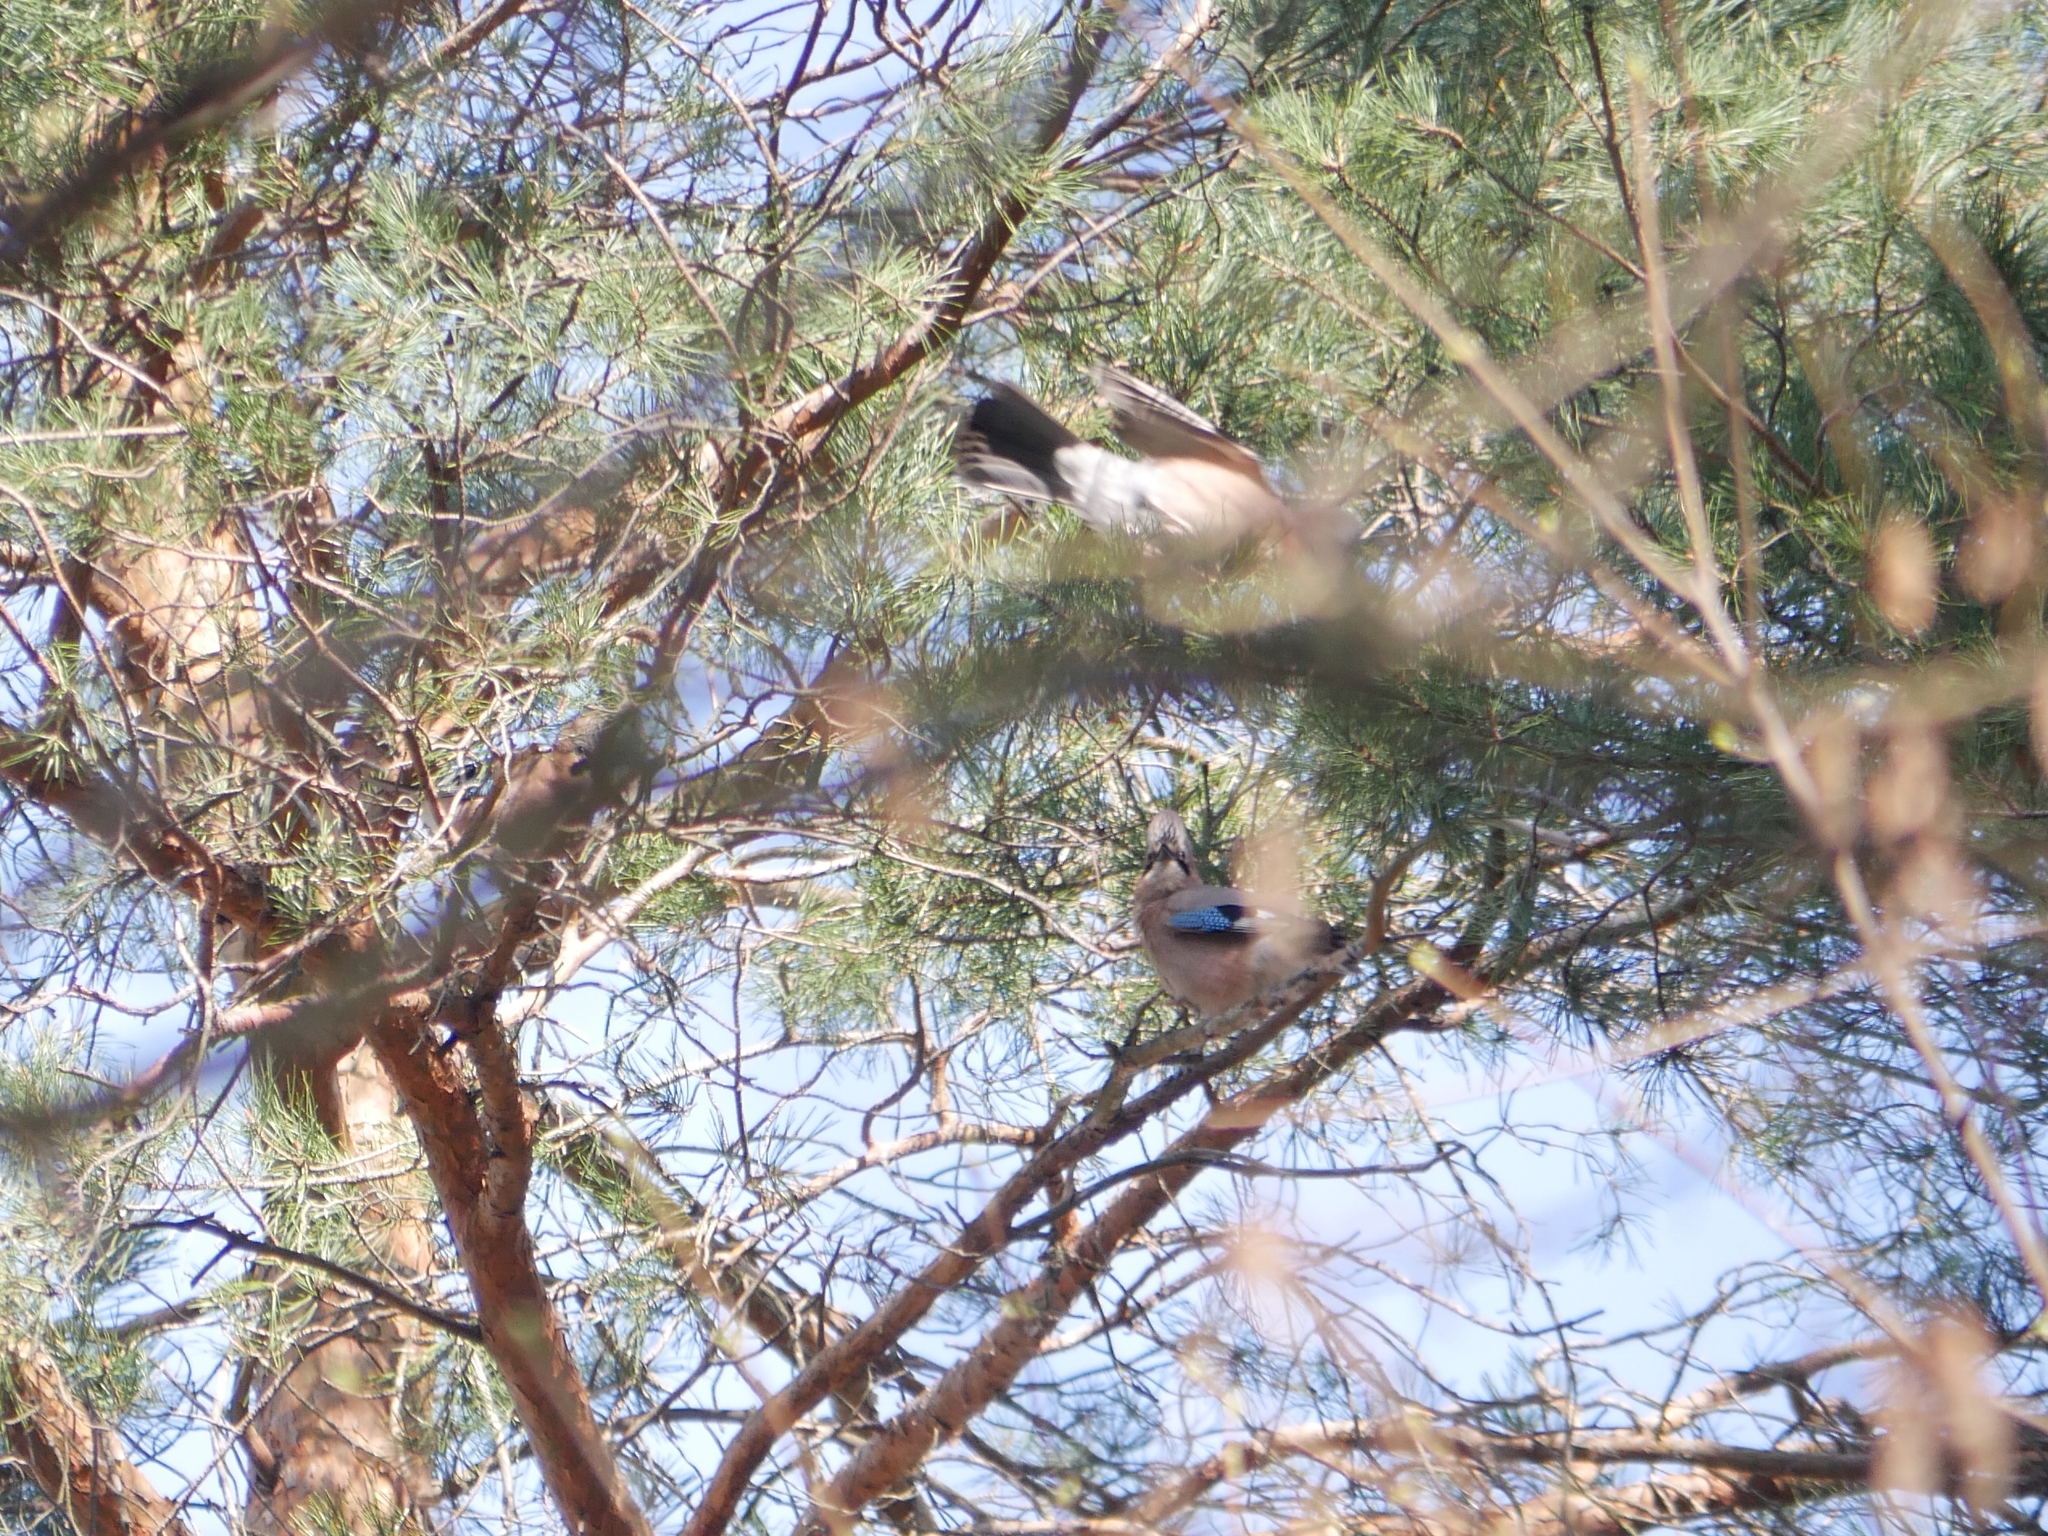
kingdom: Animalia
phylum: Chordata
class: Aves
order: Passeriformes
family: Corvidae
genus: Garrulus
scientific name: Garrulus glandarius
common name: Eurasian jay
